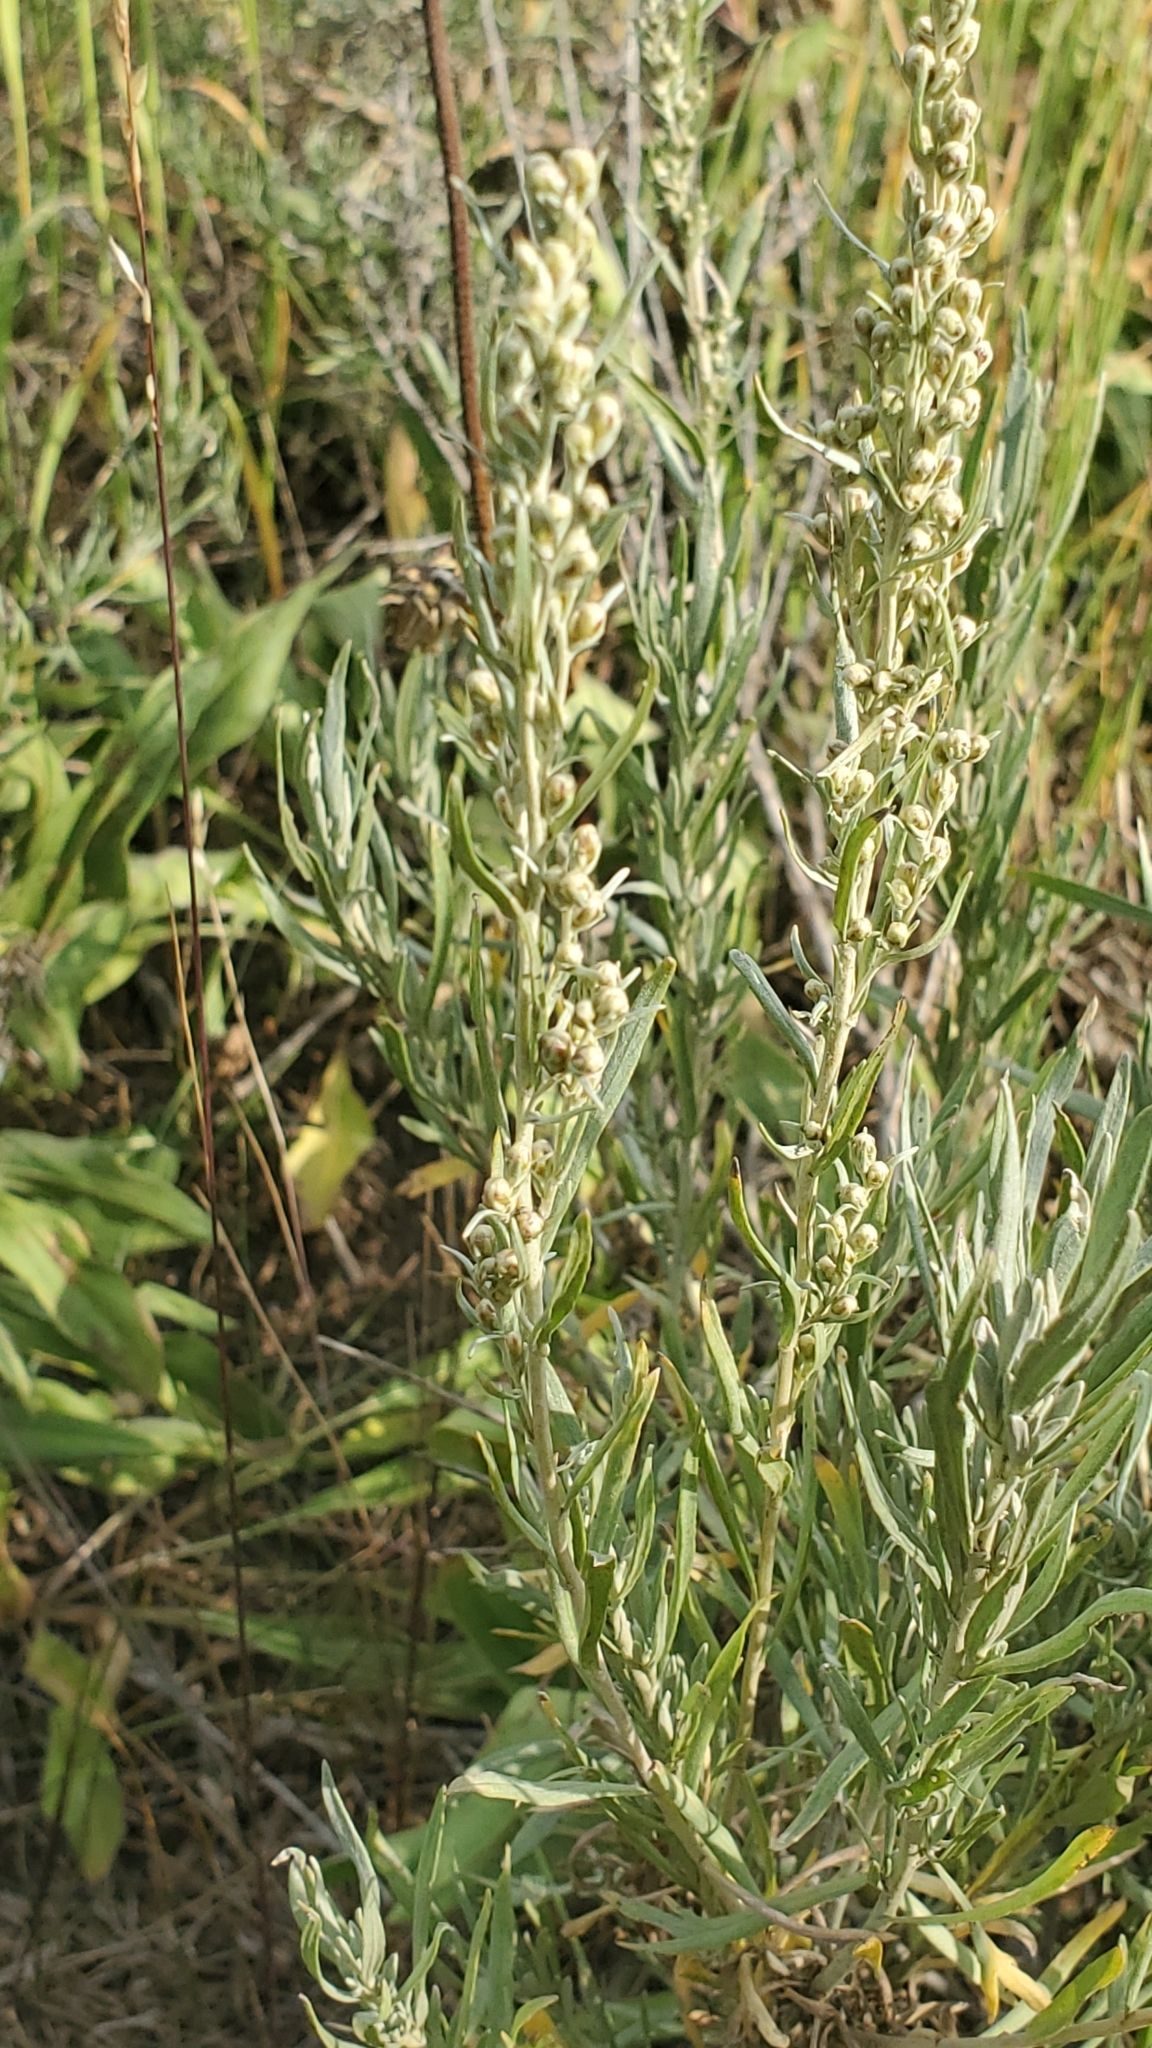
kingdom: Plantae
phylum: Tracheophyta
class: Magnoliopsida
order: Asterales
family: Asteraceae
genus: Artemisia
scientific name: Artemisia cana
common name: Silver sagebrush
